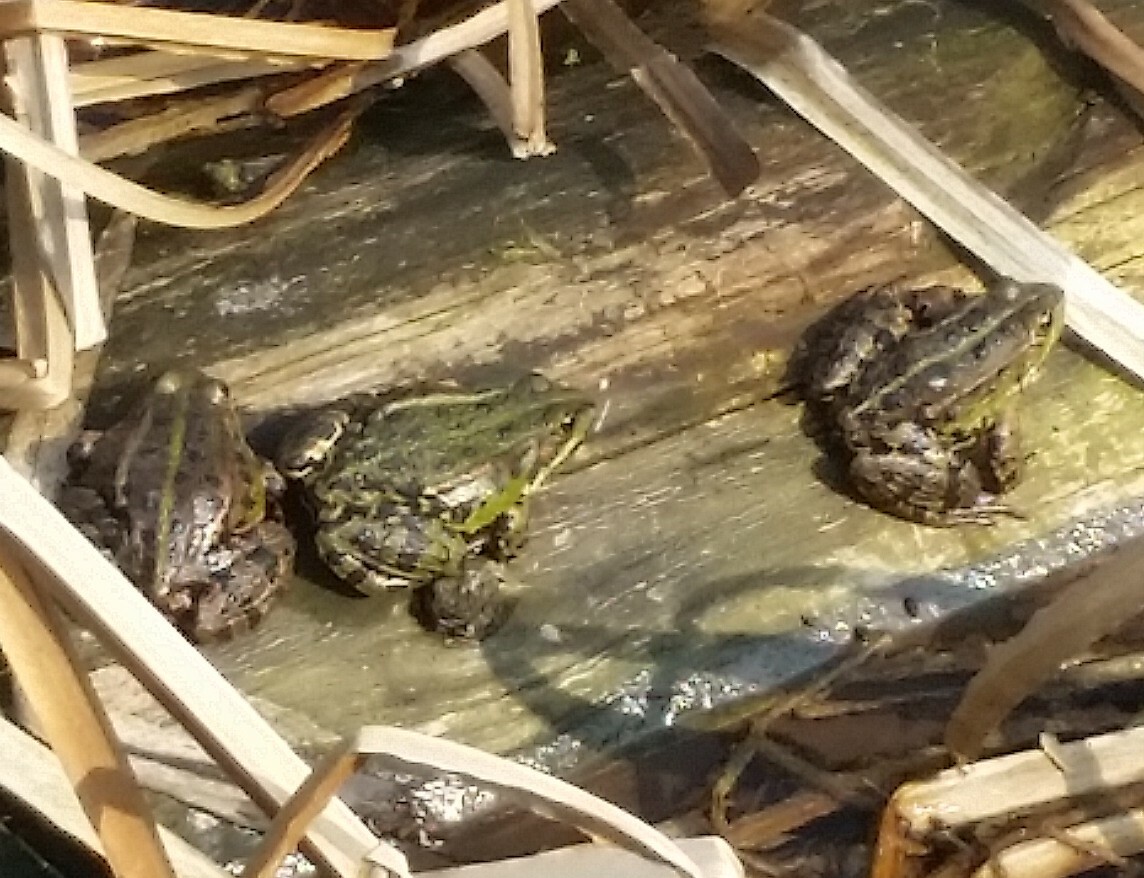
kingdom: Animalia
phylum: Chordata
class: Amphibia
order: Anura
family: Ranidae
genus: Pelophylax
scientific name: Pelophylax
